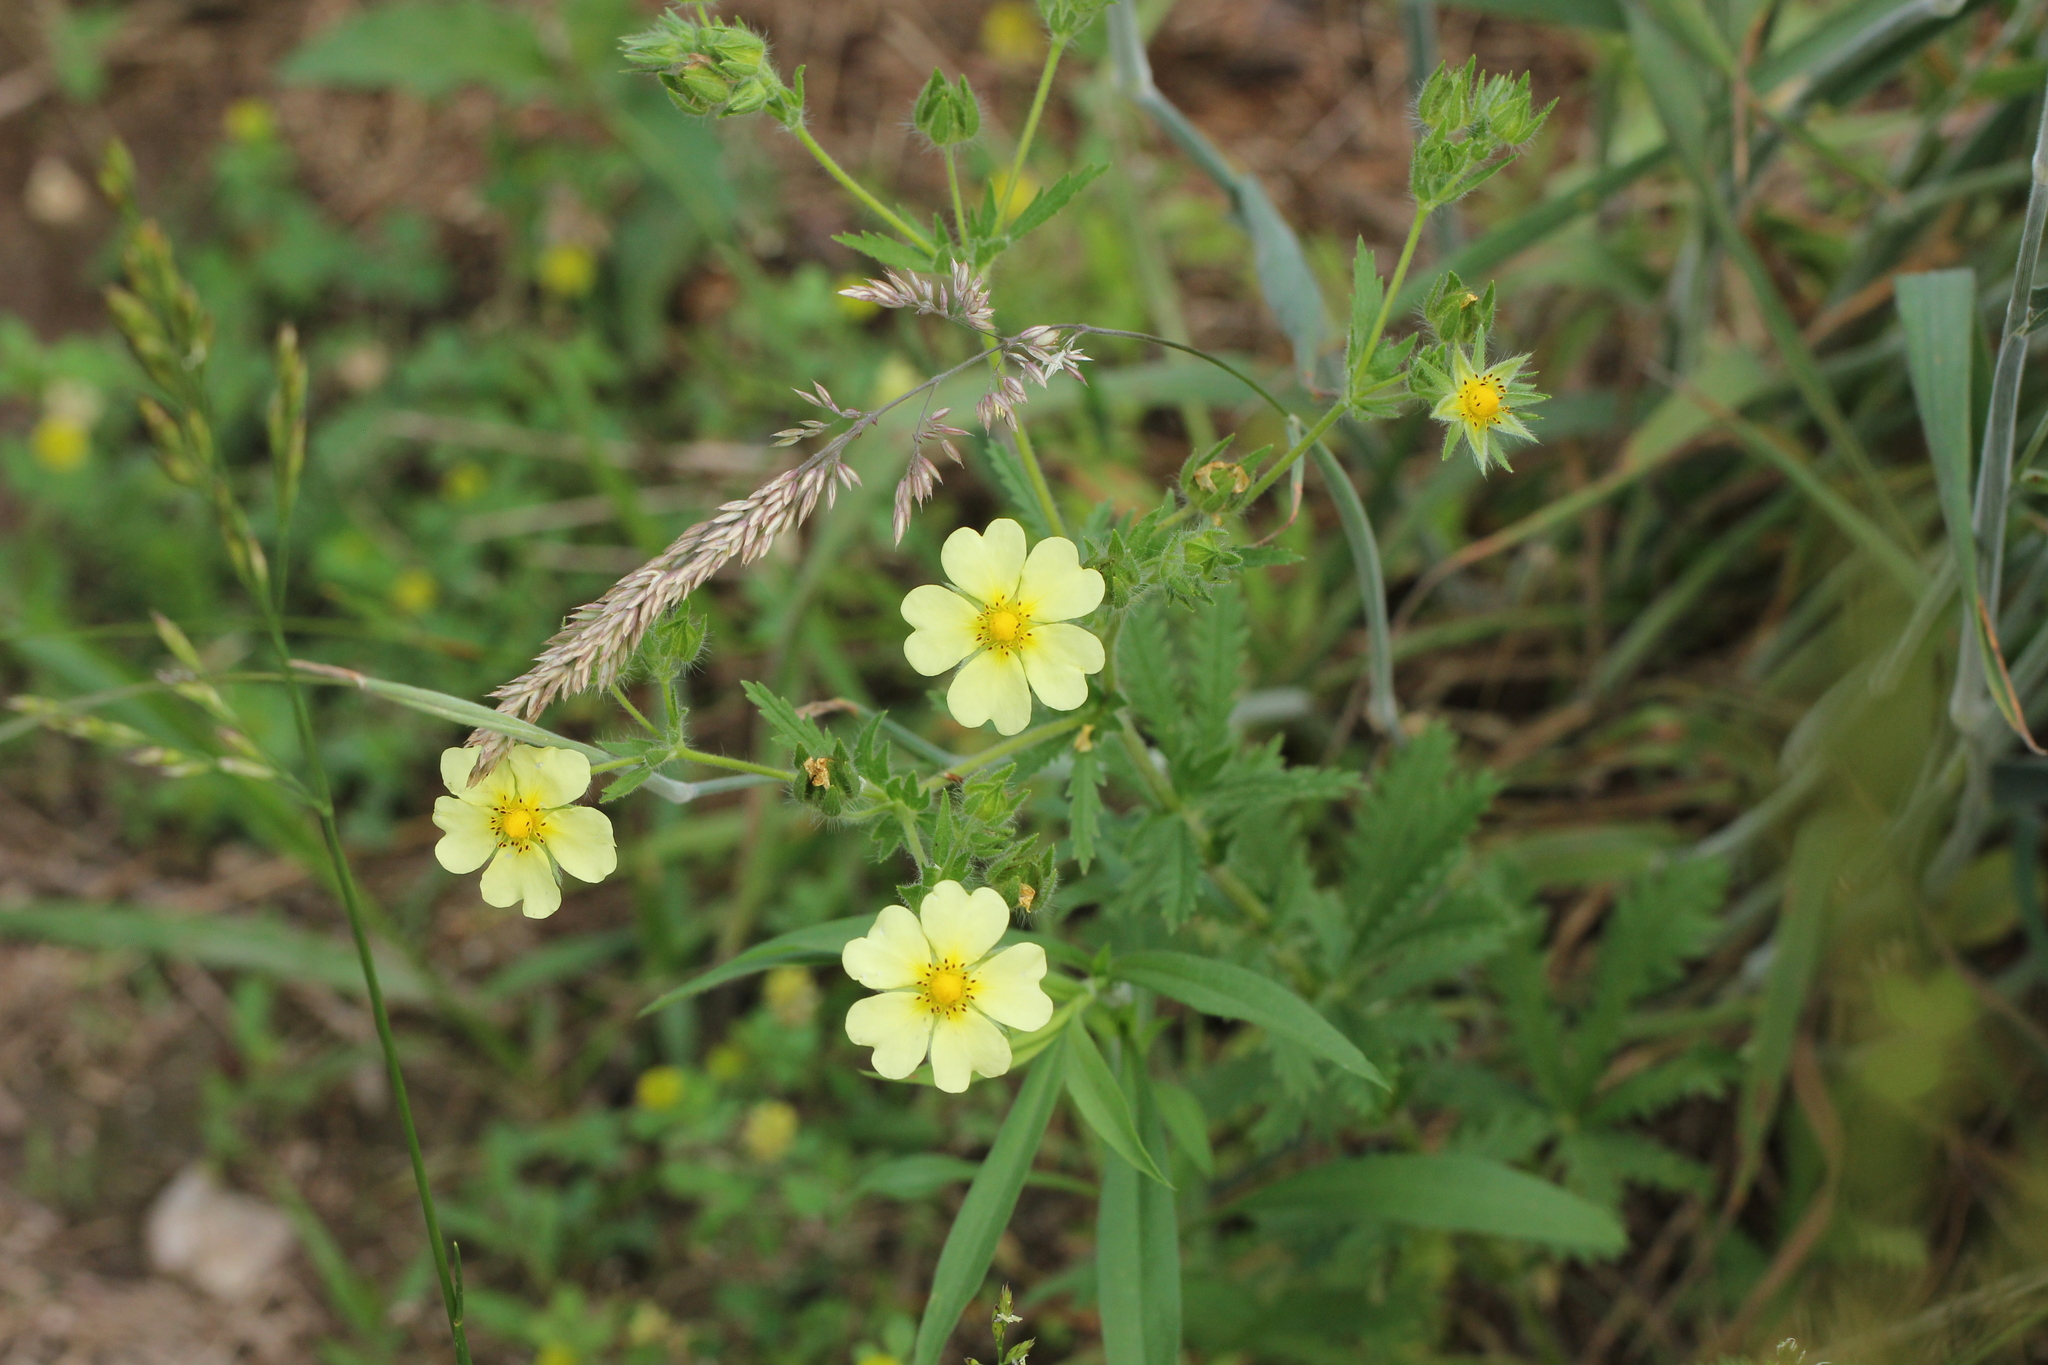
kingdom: Plantae
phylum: Tracheophyta
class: Magnoliopsida
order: Rosales
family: Rosaceae
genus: Potentilla
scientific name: Potentilla recta
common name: Sulphur cinquefoil
